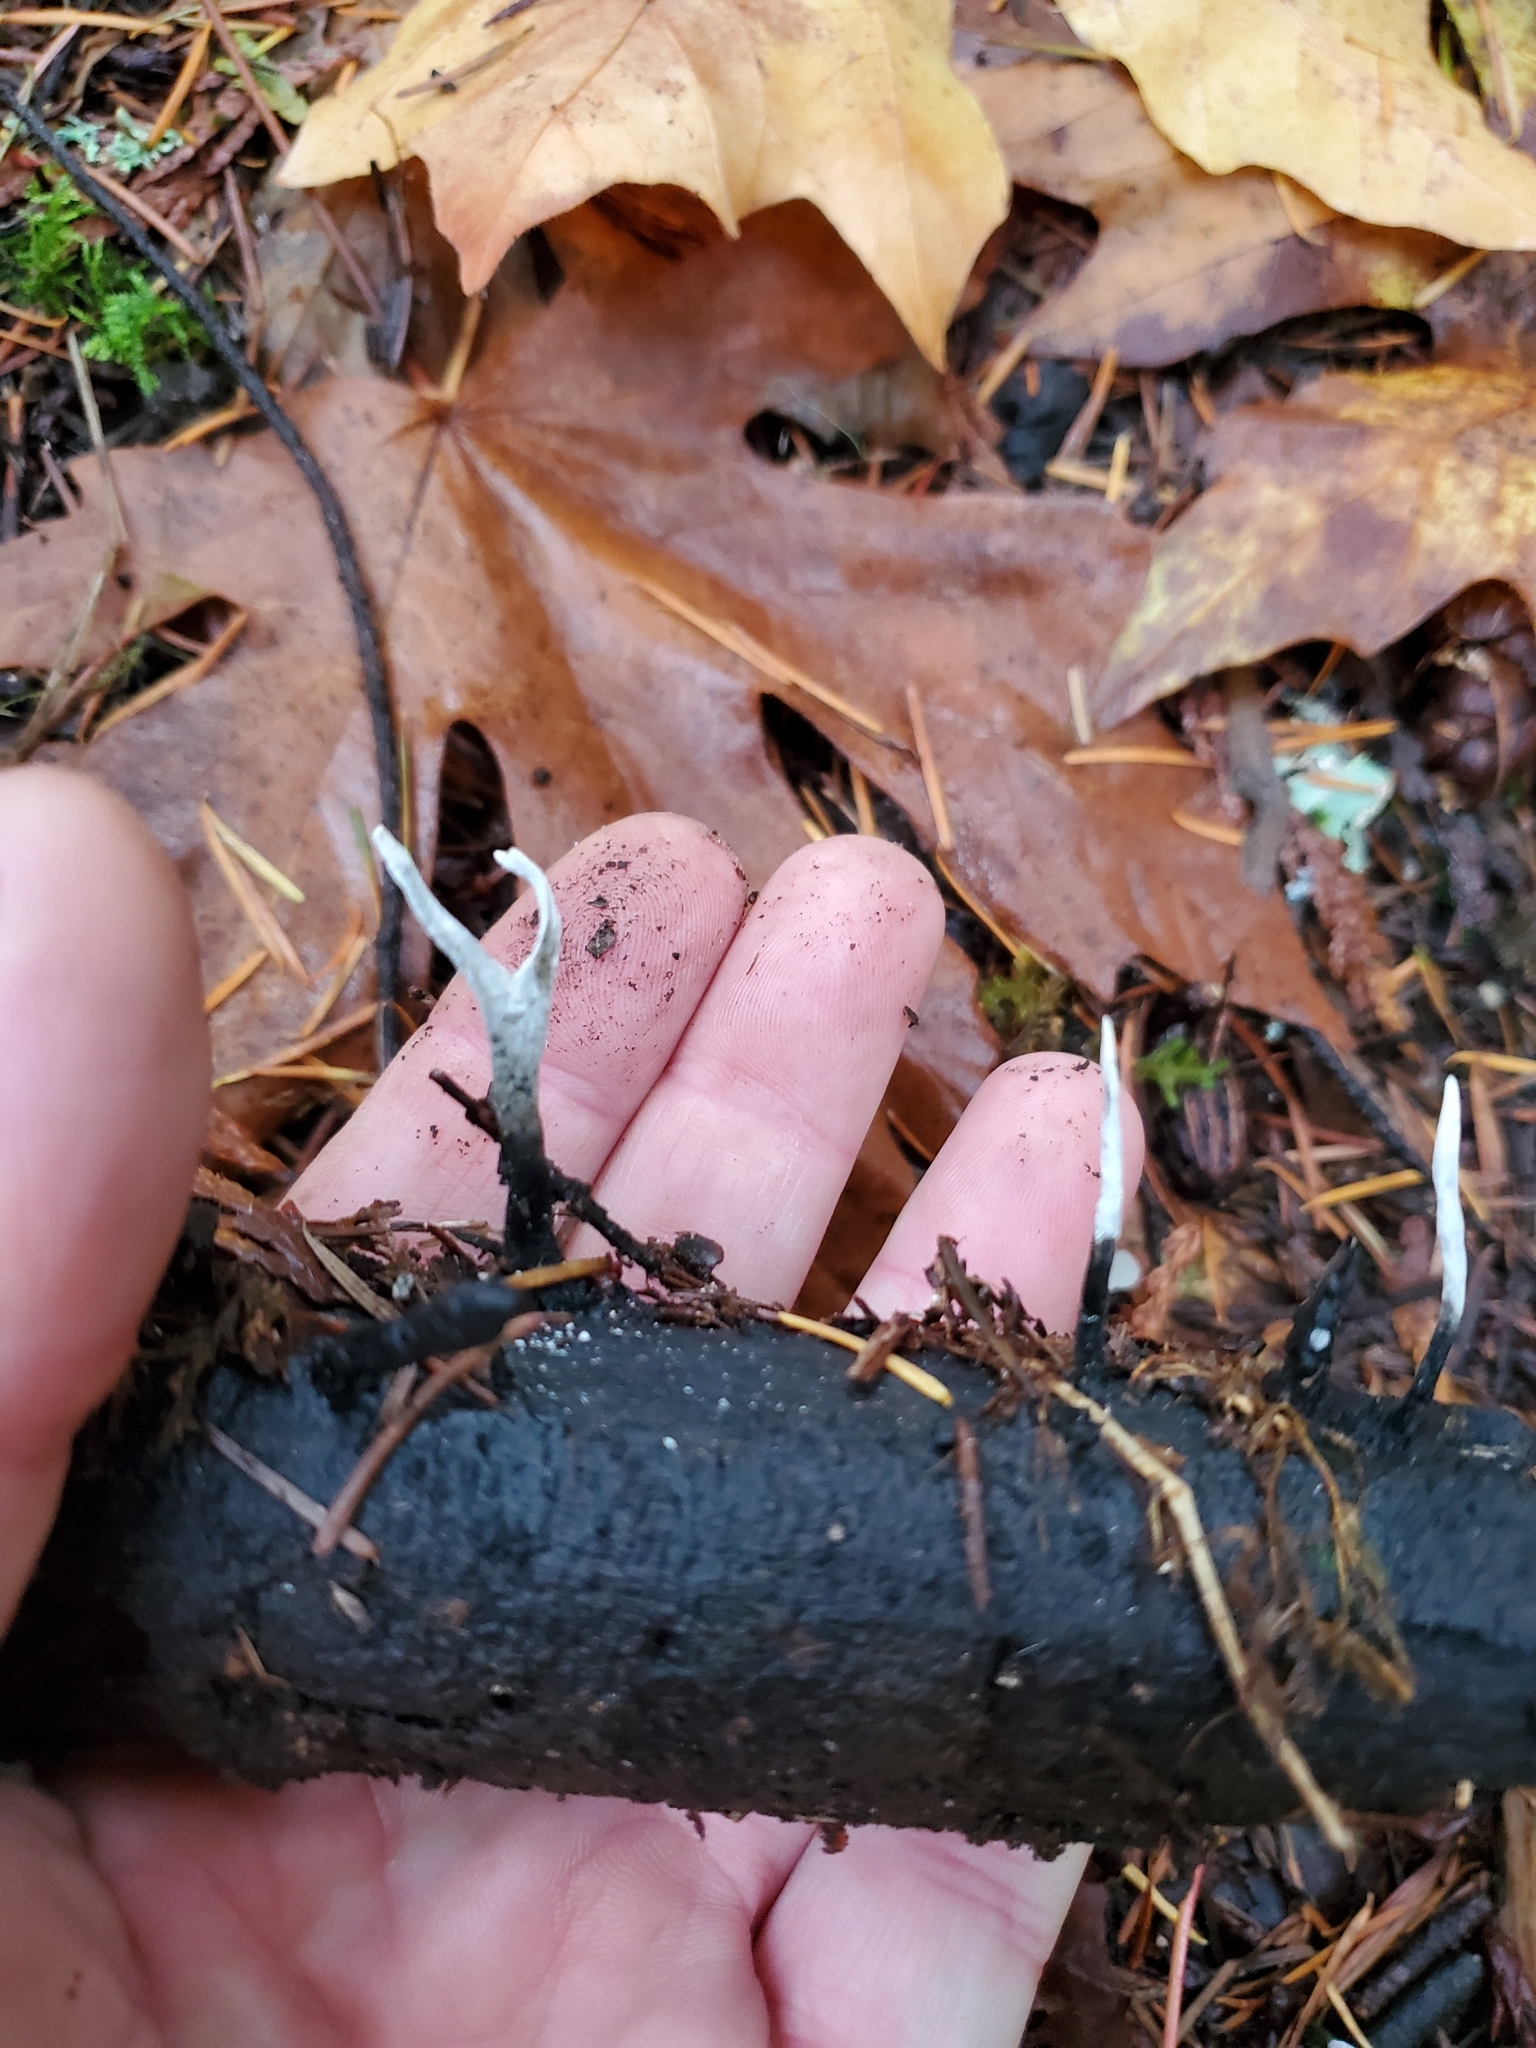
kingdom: Fungi
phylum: Ascomycota
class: Sordariomycetes
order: Xylariales
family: Xylariaceae
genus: Xylaria
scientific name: Xylaria hypoxylon
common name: Candle-snuff fungus
